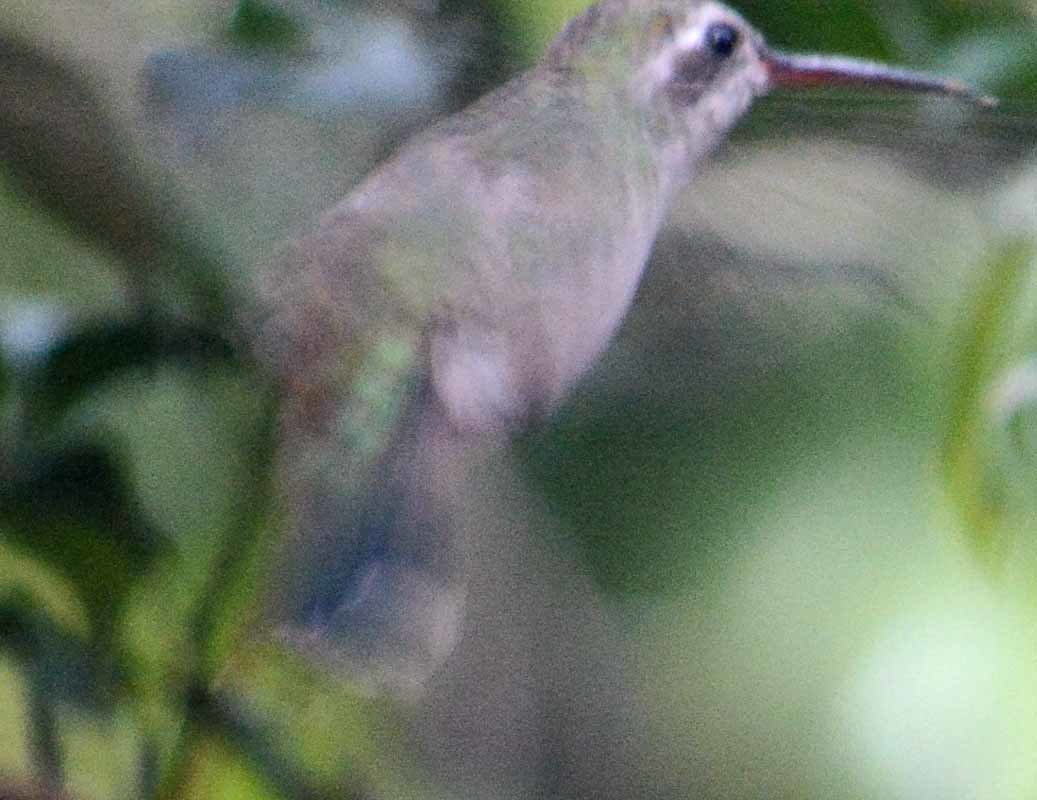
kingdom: Animalia
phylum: Chordata
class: Aves
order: Apodiformes
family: Trochilidae
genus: Cynanthus
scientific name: Cynanthus latirostris
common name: Broad-billed hummingbird
